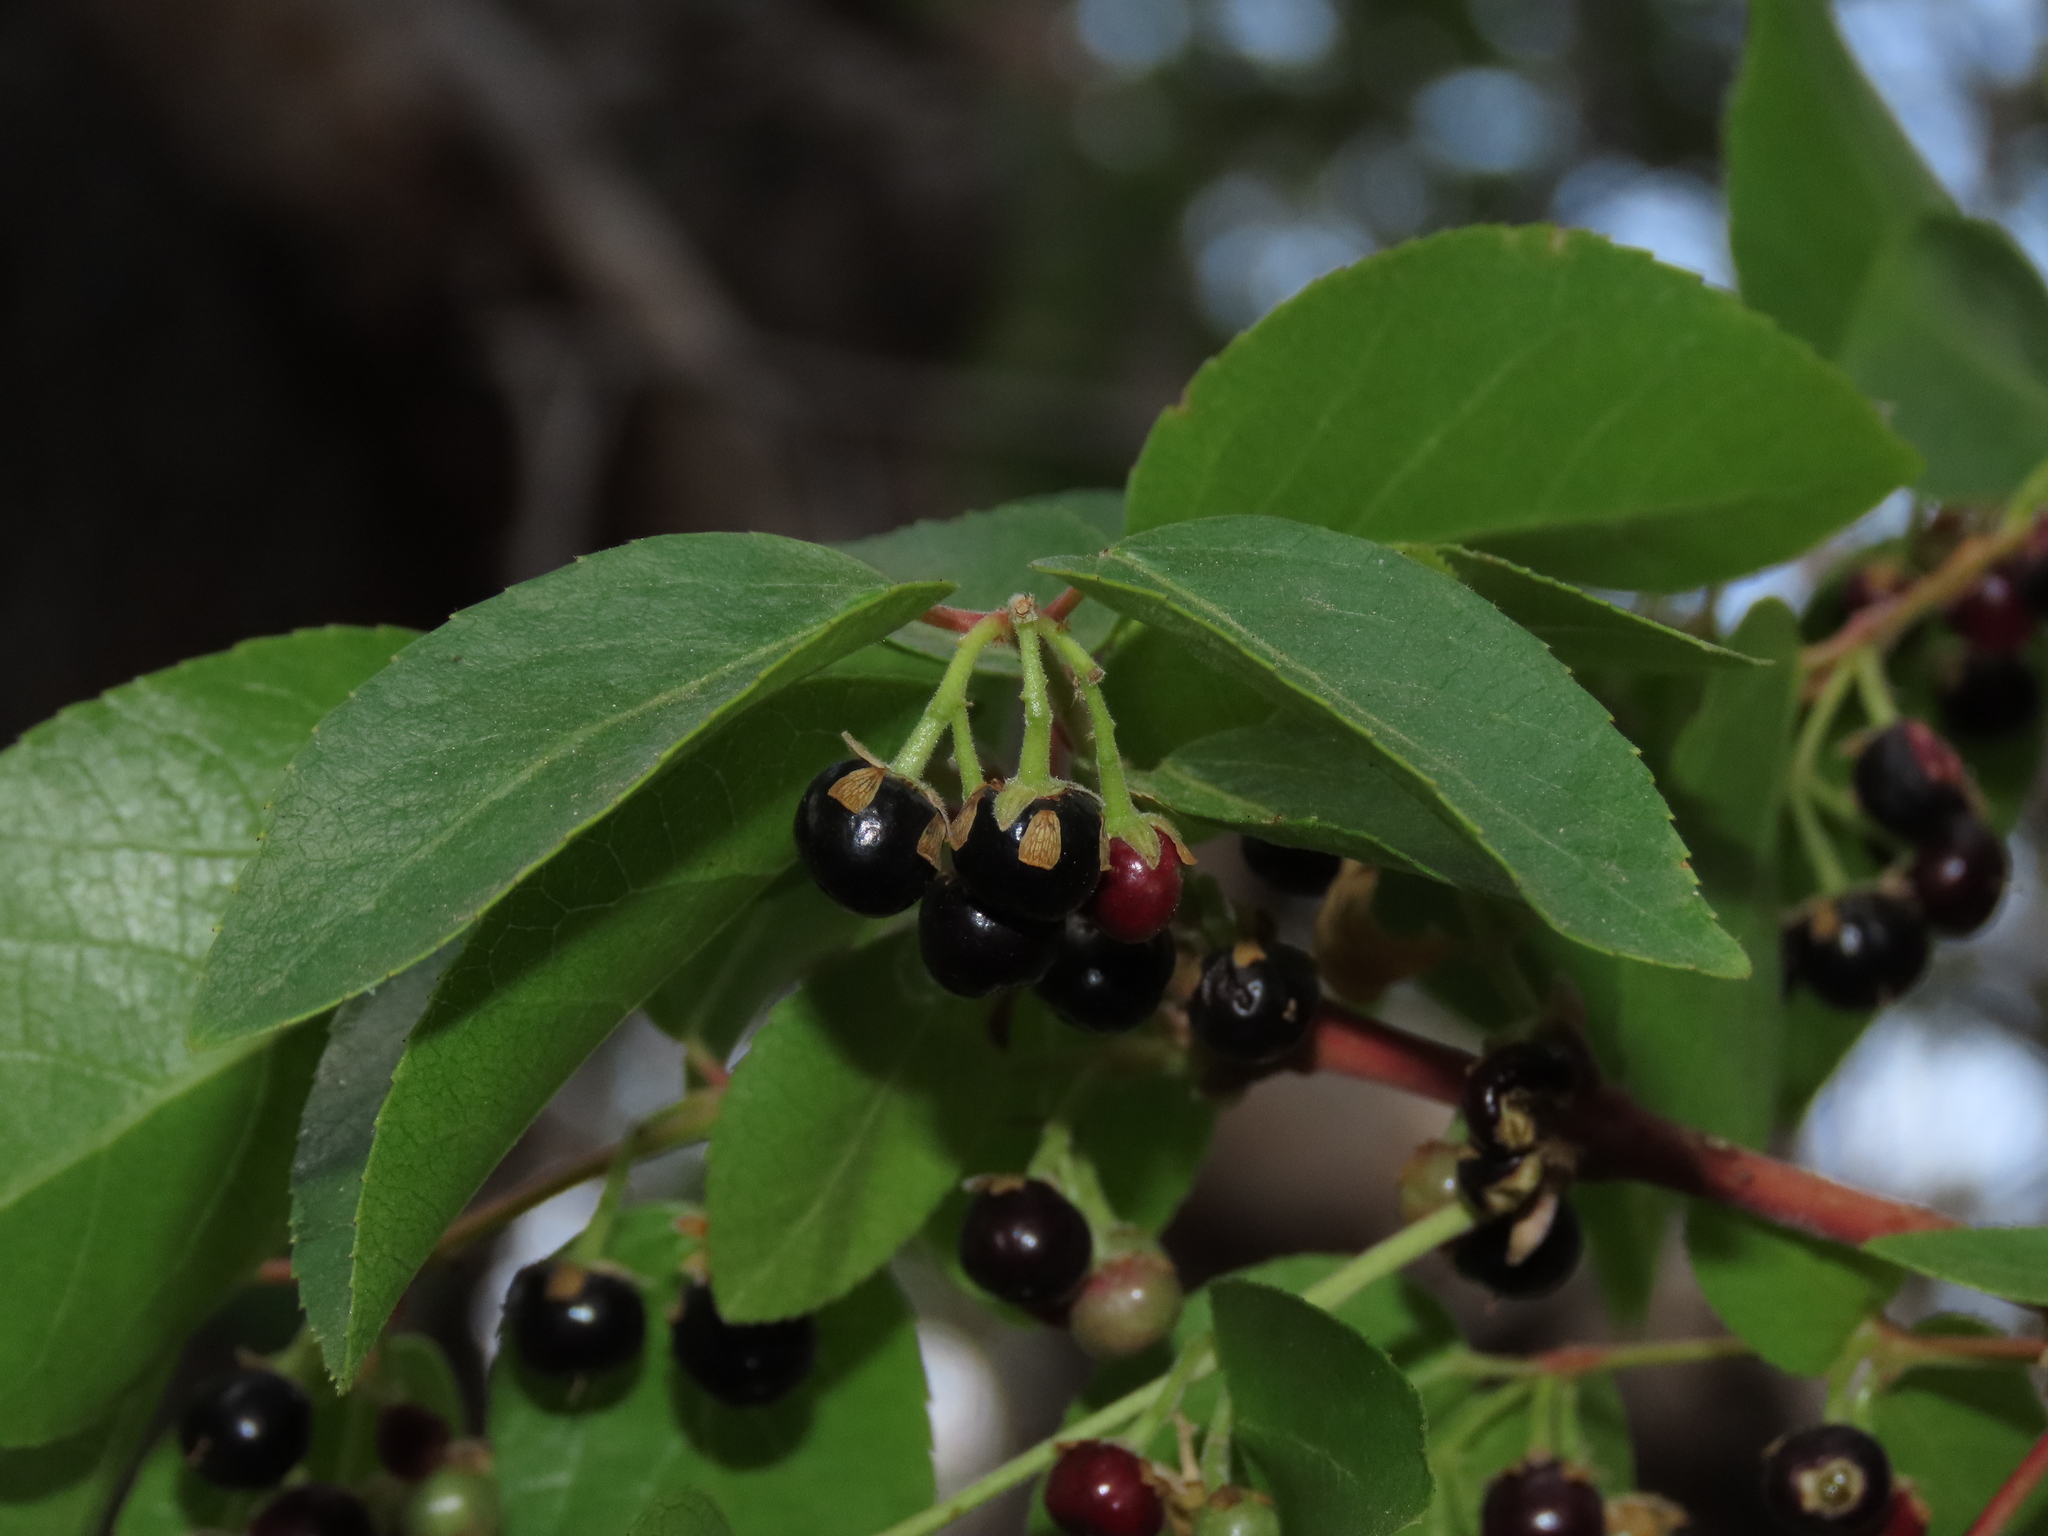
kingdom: Plantae
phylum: Tracheophyta
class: Magnoliopsida
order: Oxalidales
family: Elaeocarpaceae
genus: Aristotelia
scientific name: Aristotelia chilensis
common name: Maquei
